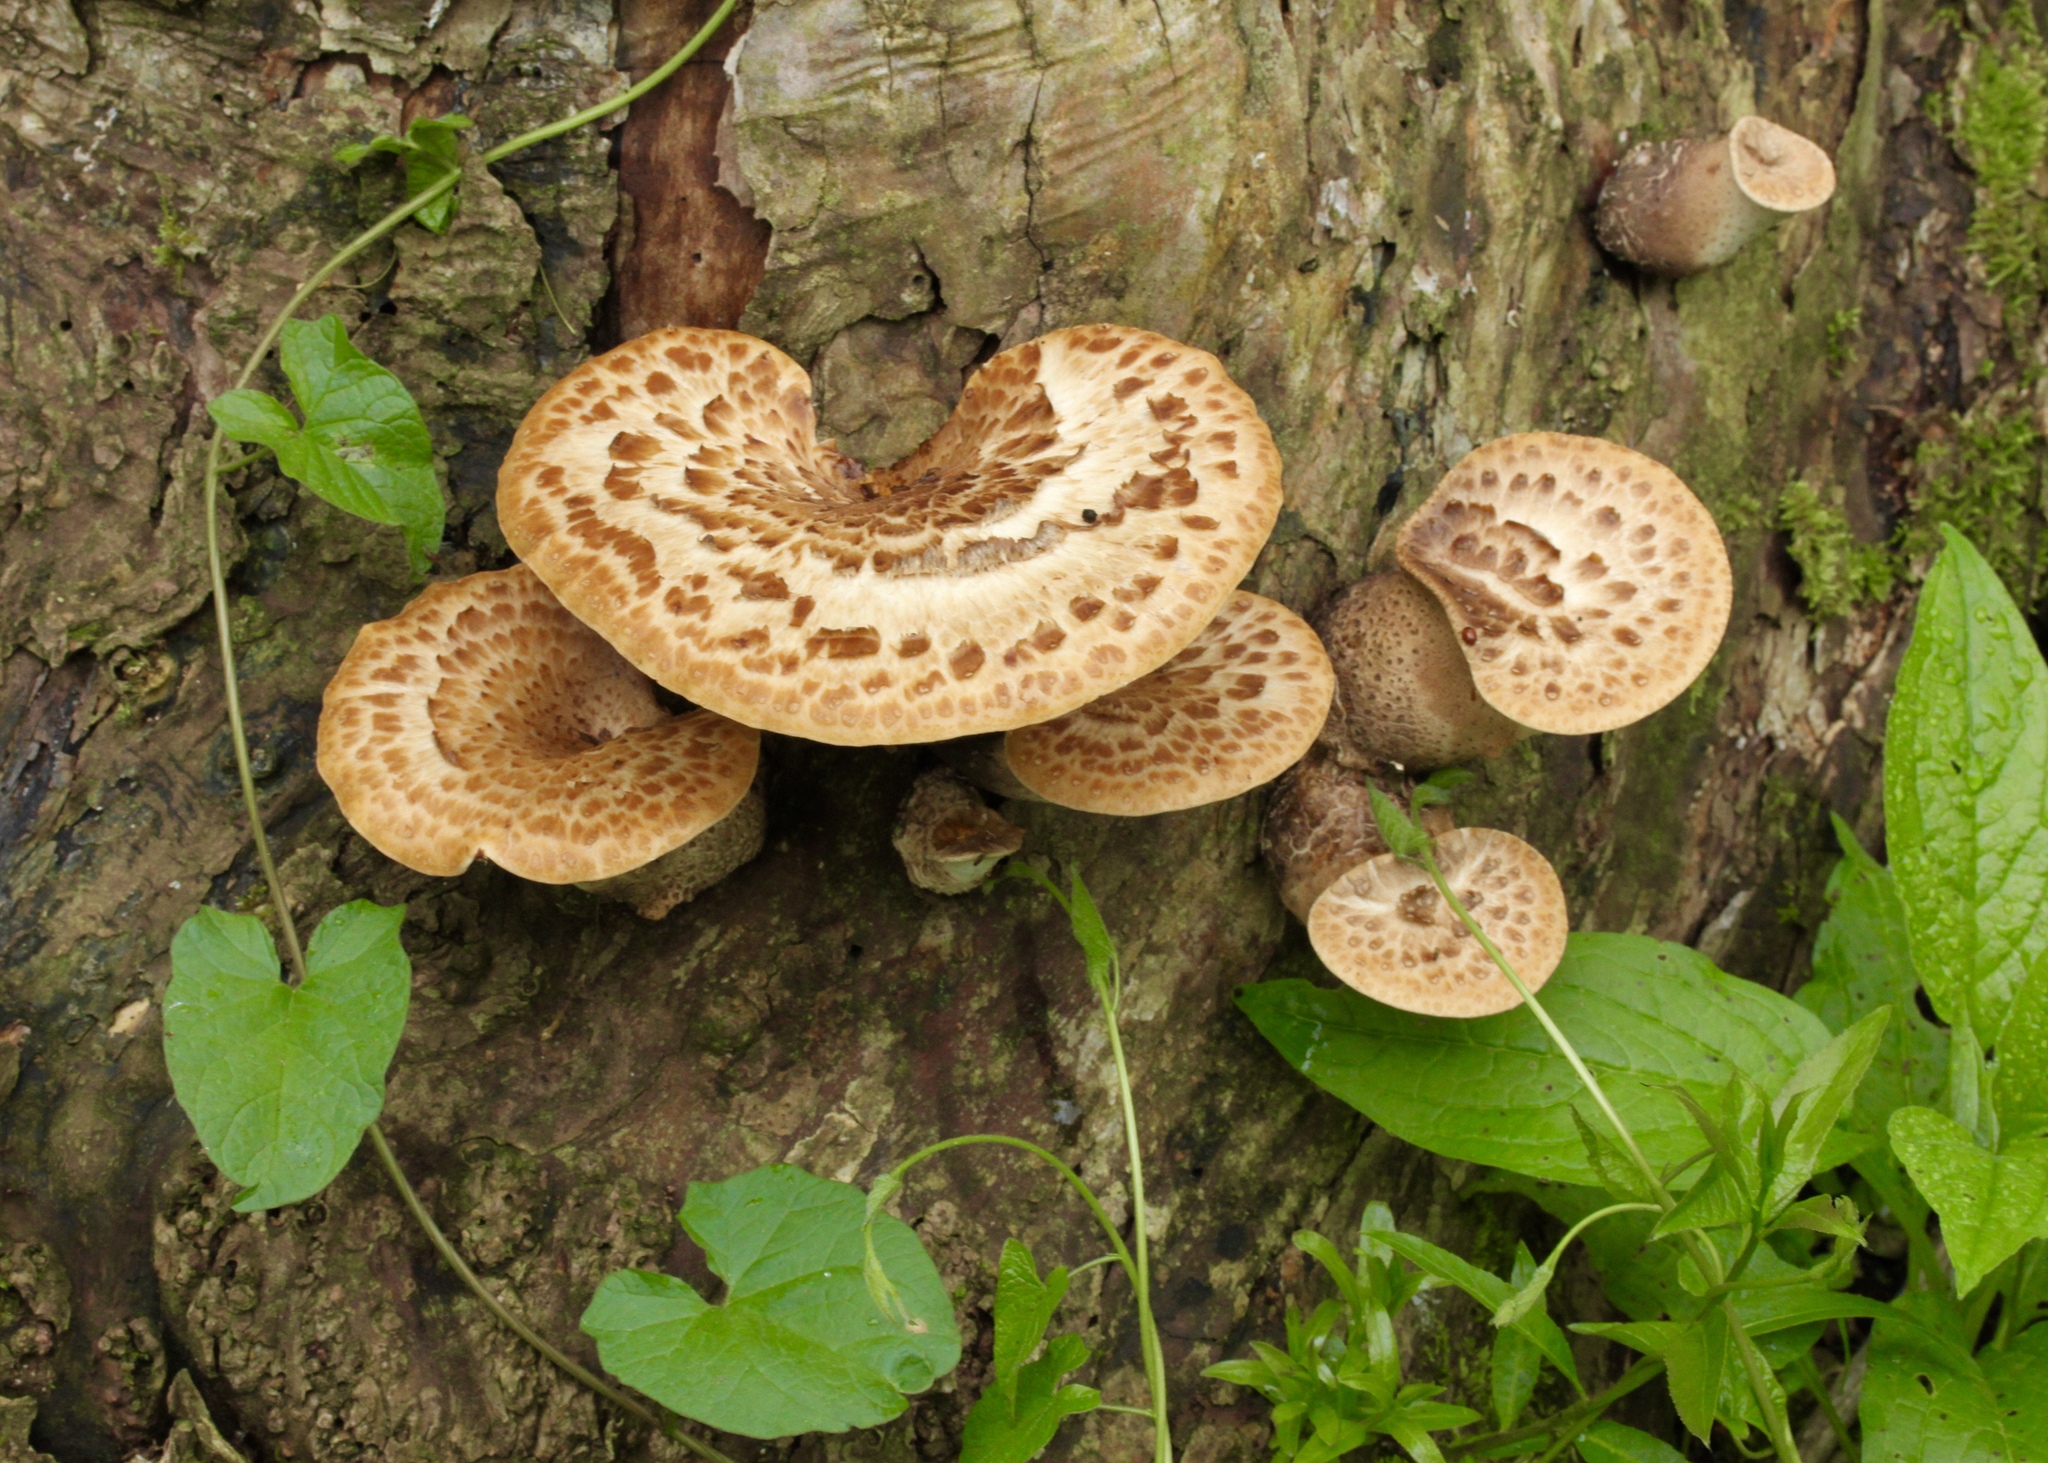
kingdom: Fungi
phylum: Basidiomycota
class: Agaricomycetes
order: Polyporales
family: Polyporaceae
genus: Cerioporus
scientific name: Cerioporus squamosus
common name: Dryad's saddle
